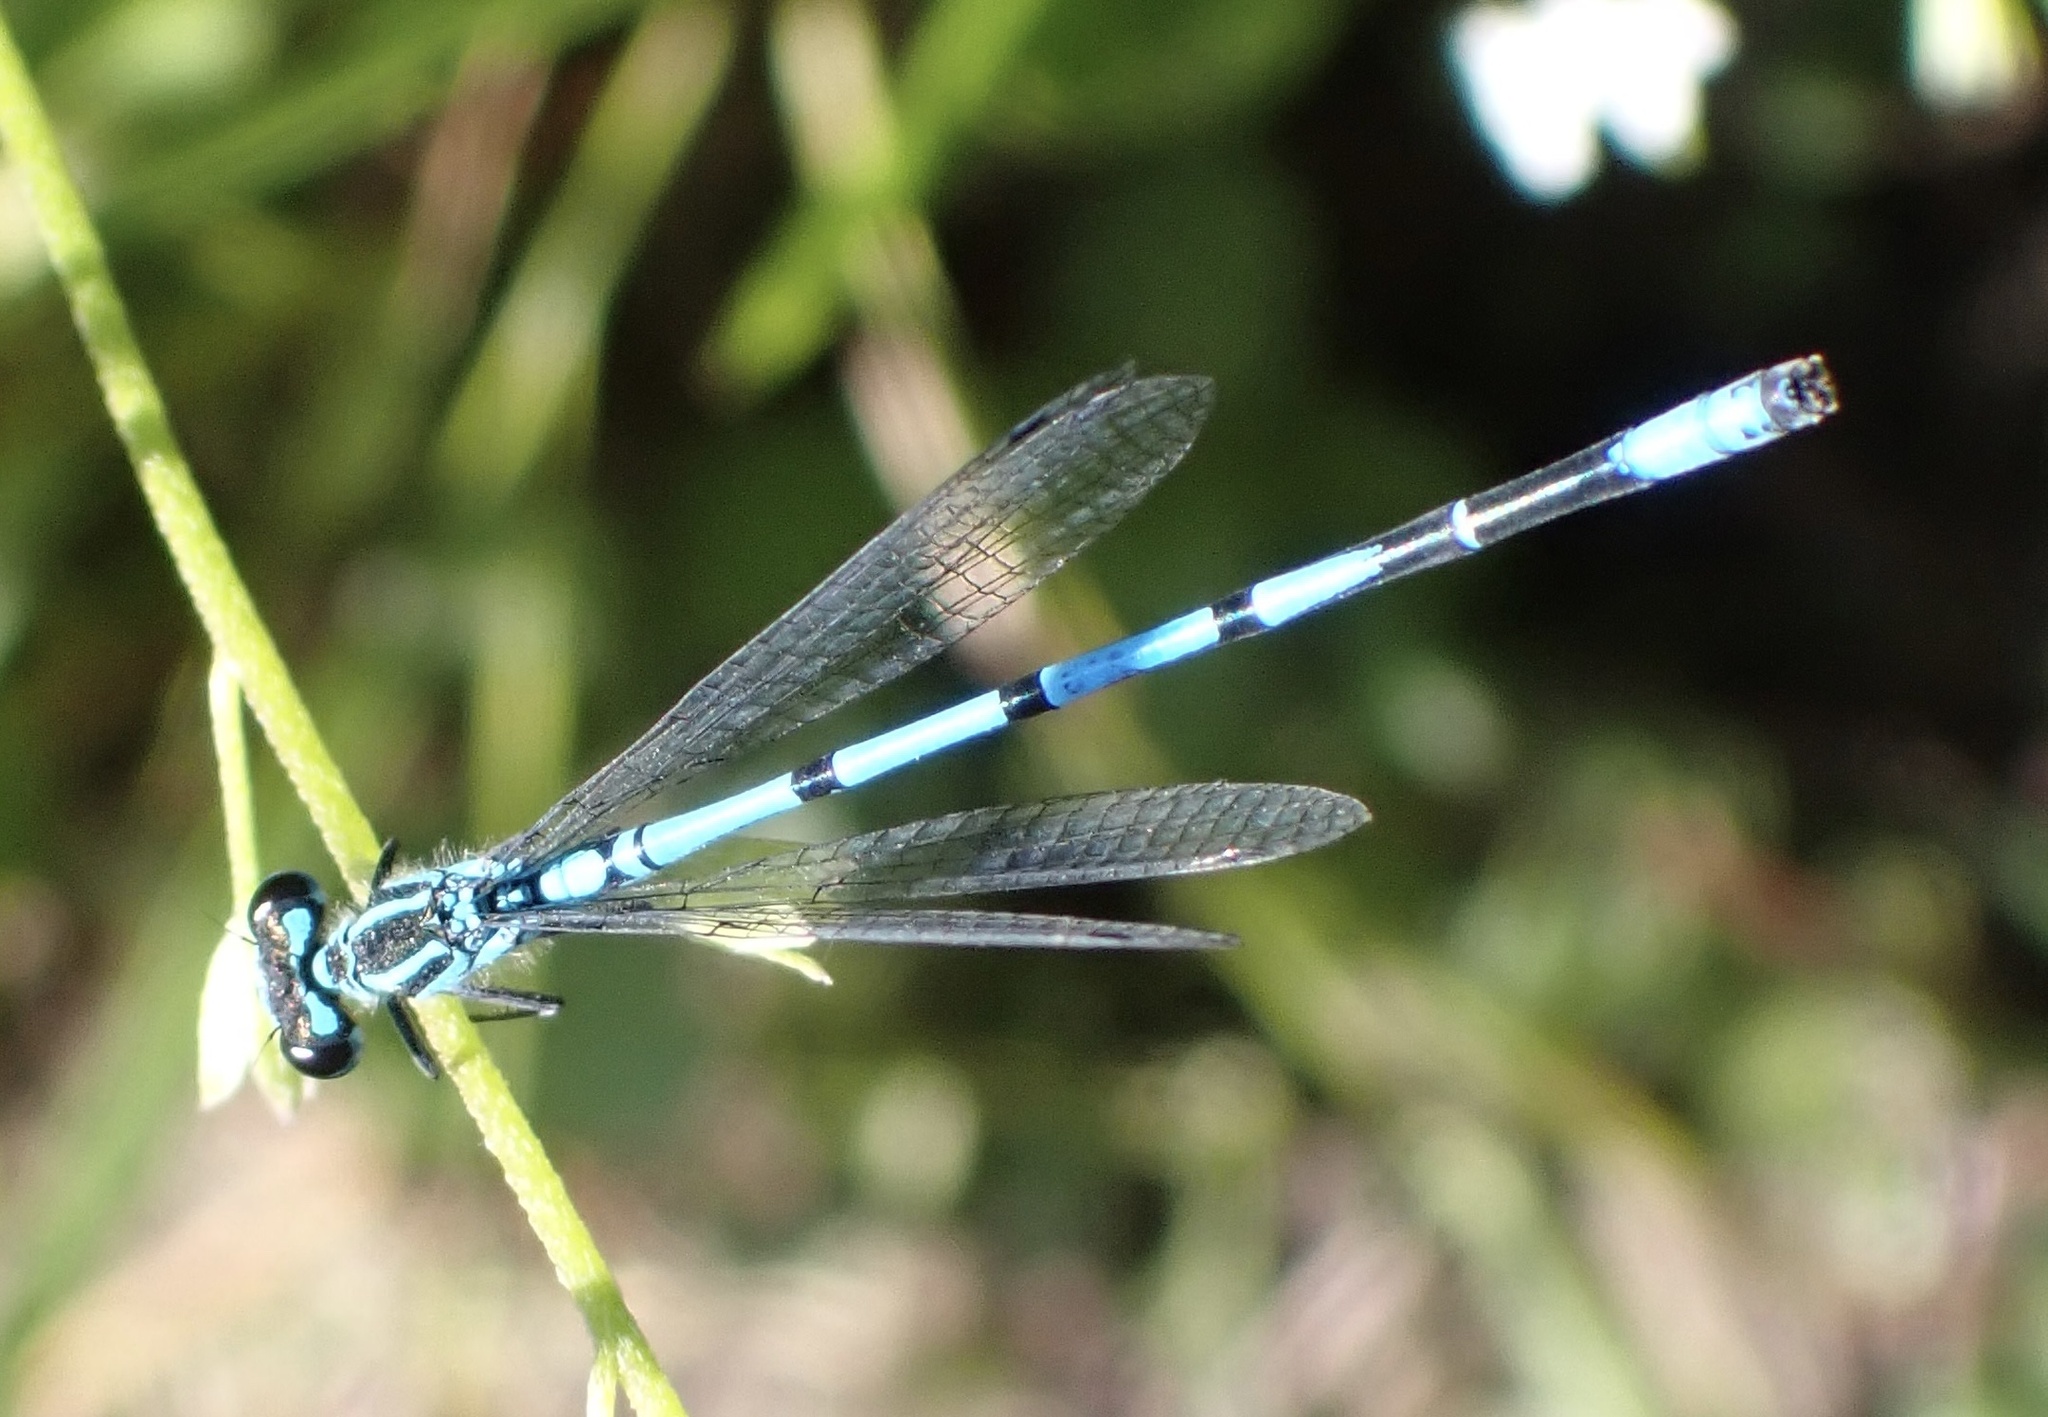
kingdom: Animalia
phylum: Arthropoda
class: Insecta
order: Odonata
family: Coenagrionidae
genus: Coenagrion
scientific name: Coenagrion puella
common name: Azure damselfly
